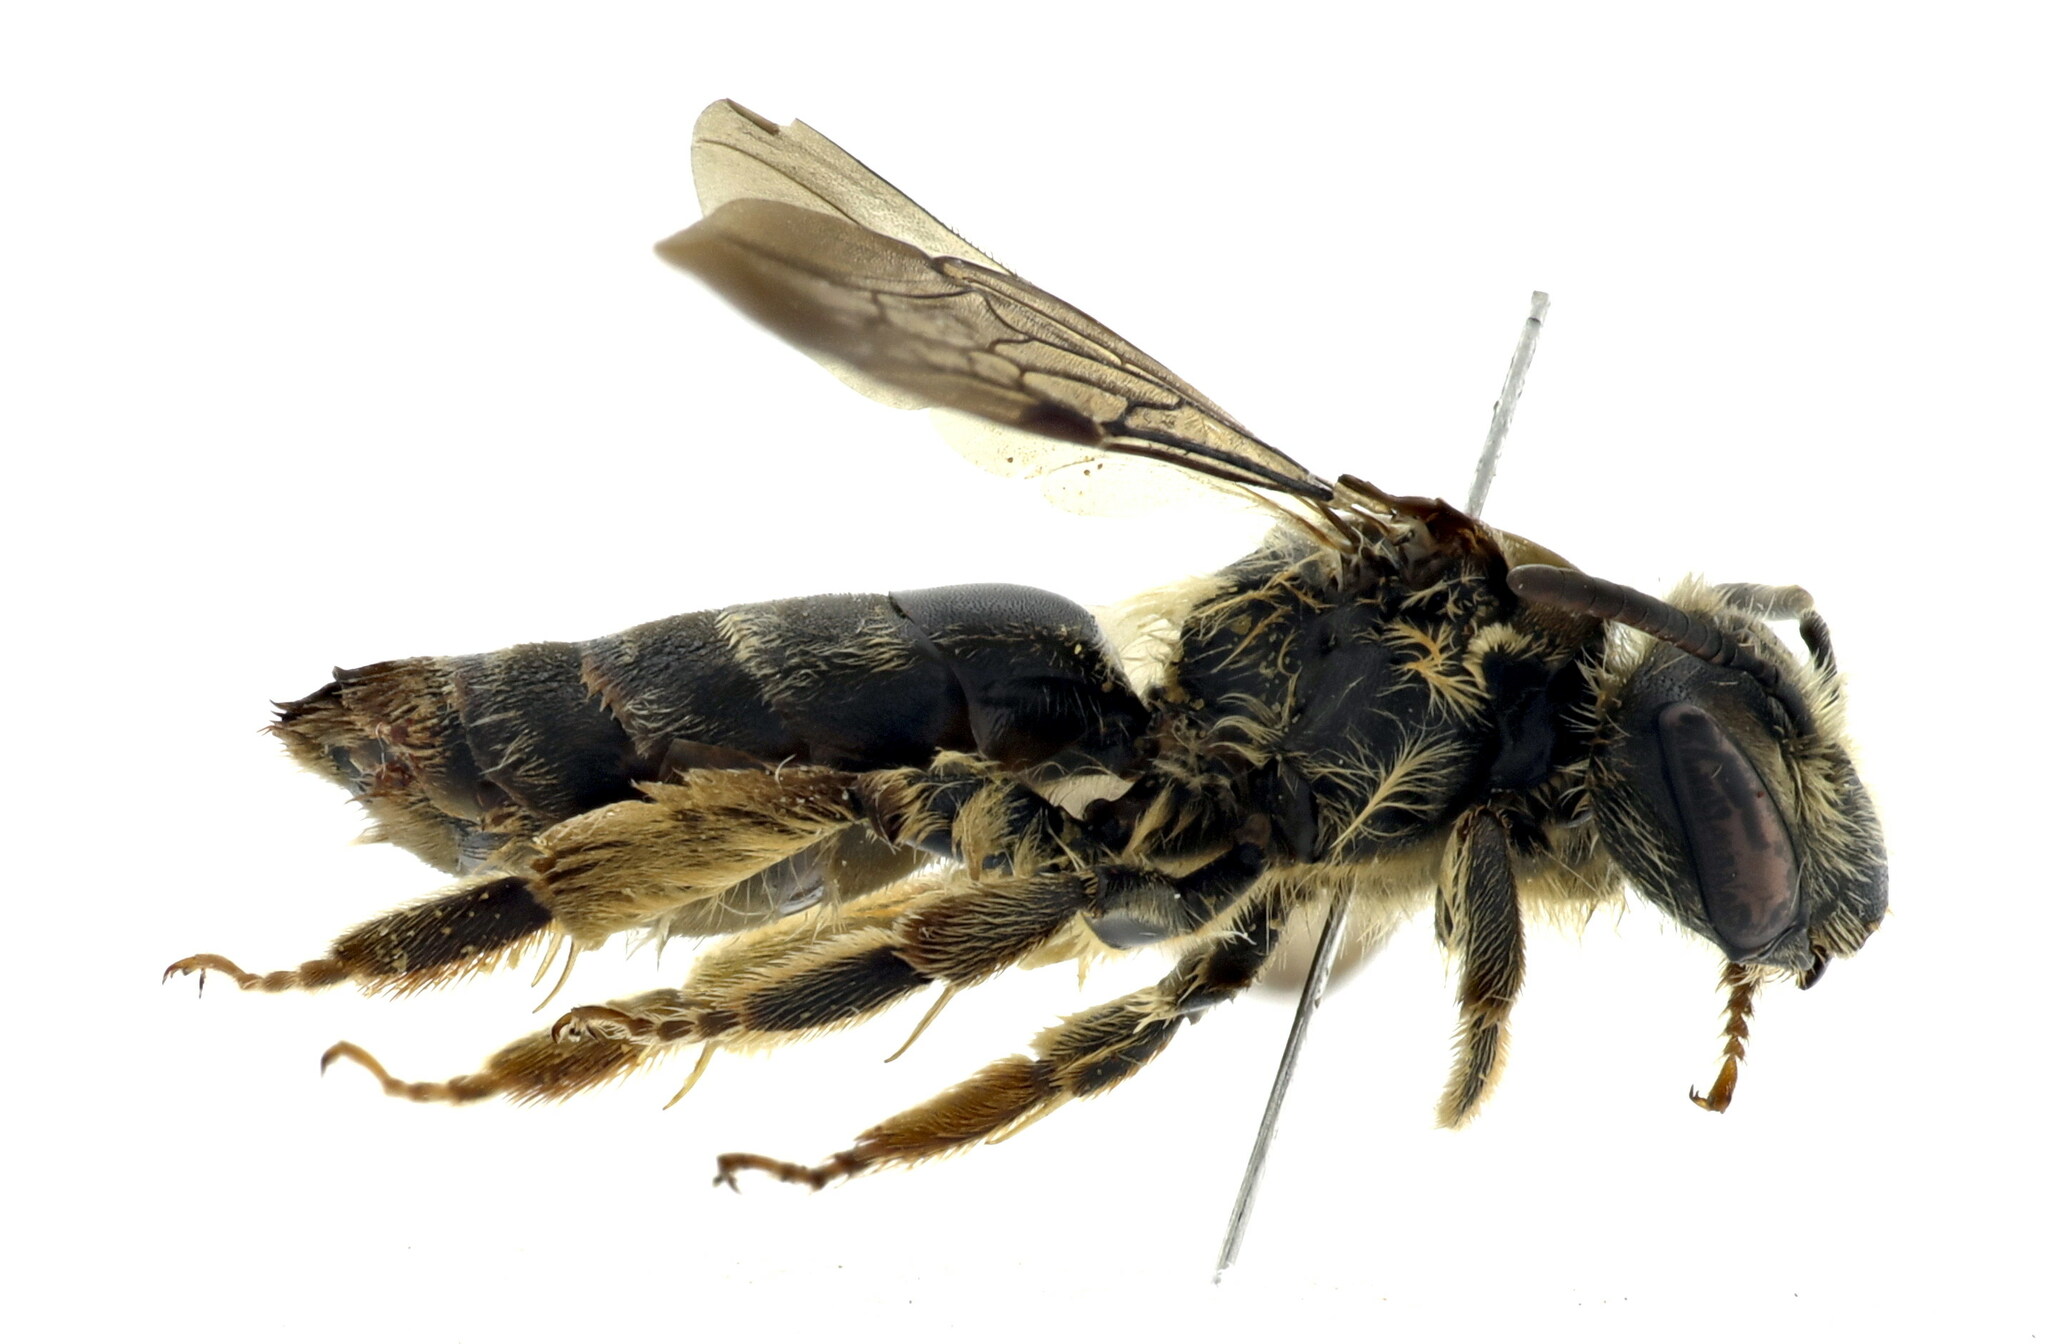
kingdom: Animalia
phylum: Arthropoda
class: Insecta
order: Hymenoptera
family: Andrenidae
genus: Andrena
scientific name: Andrena pandellei
